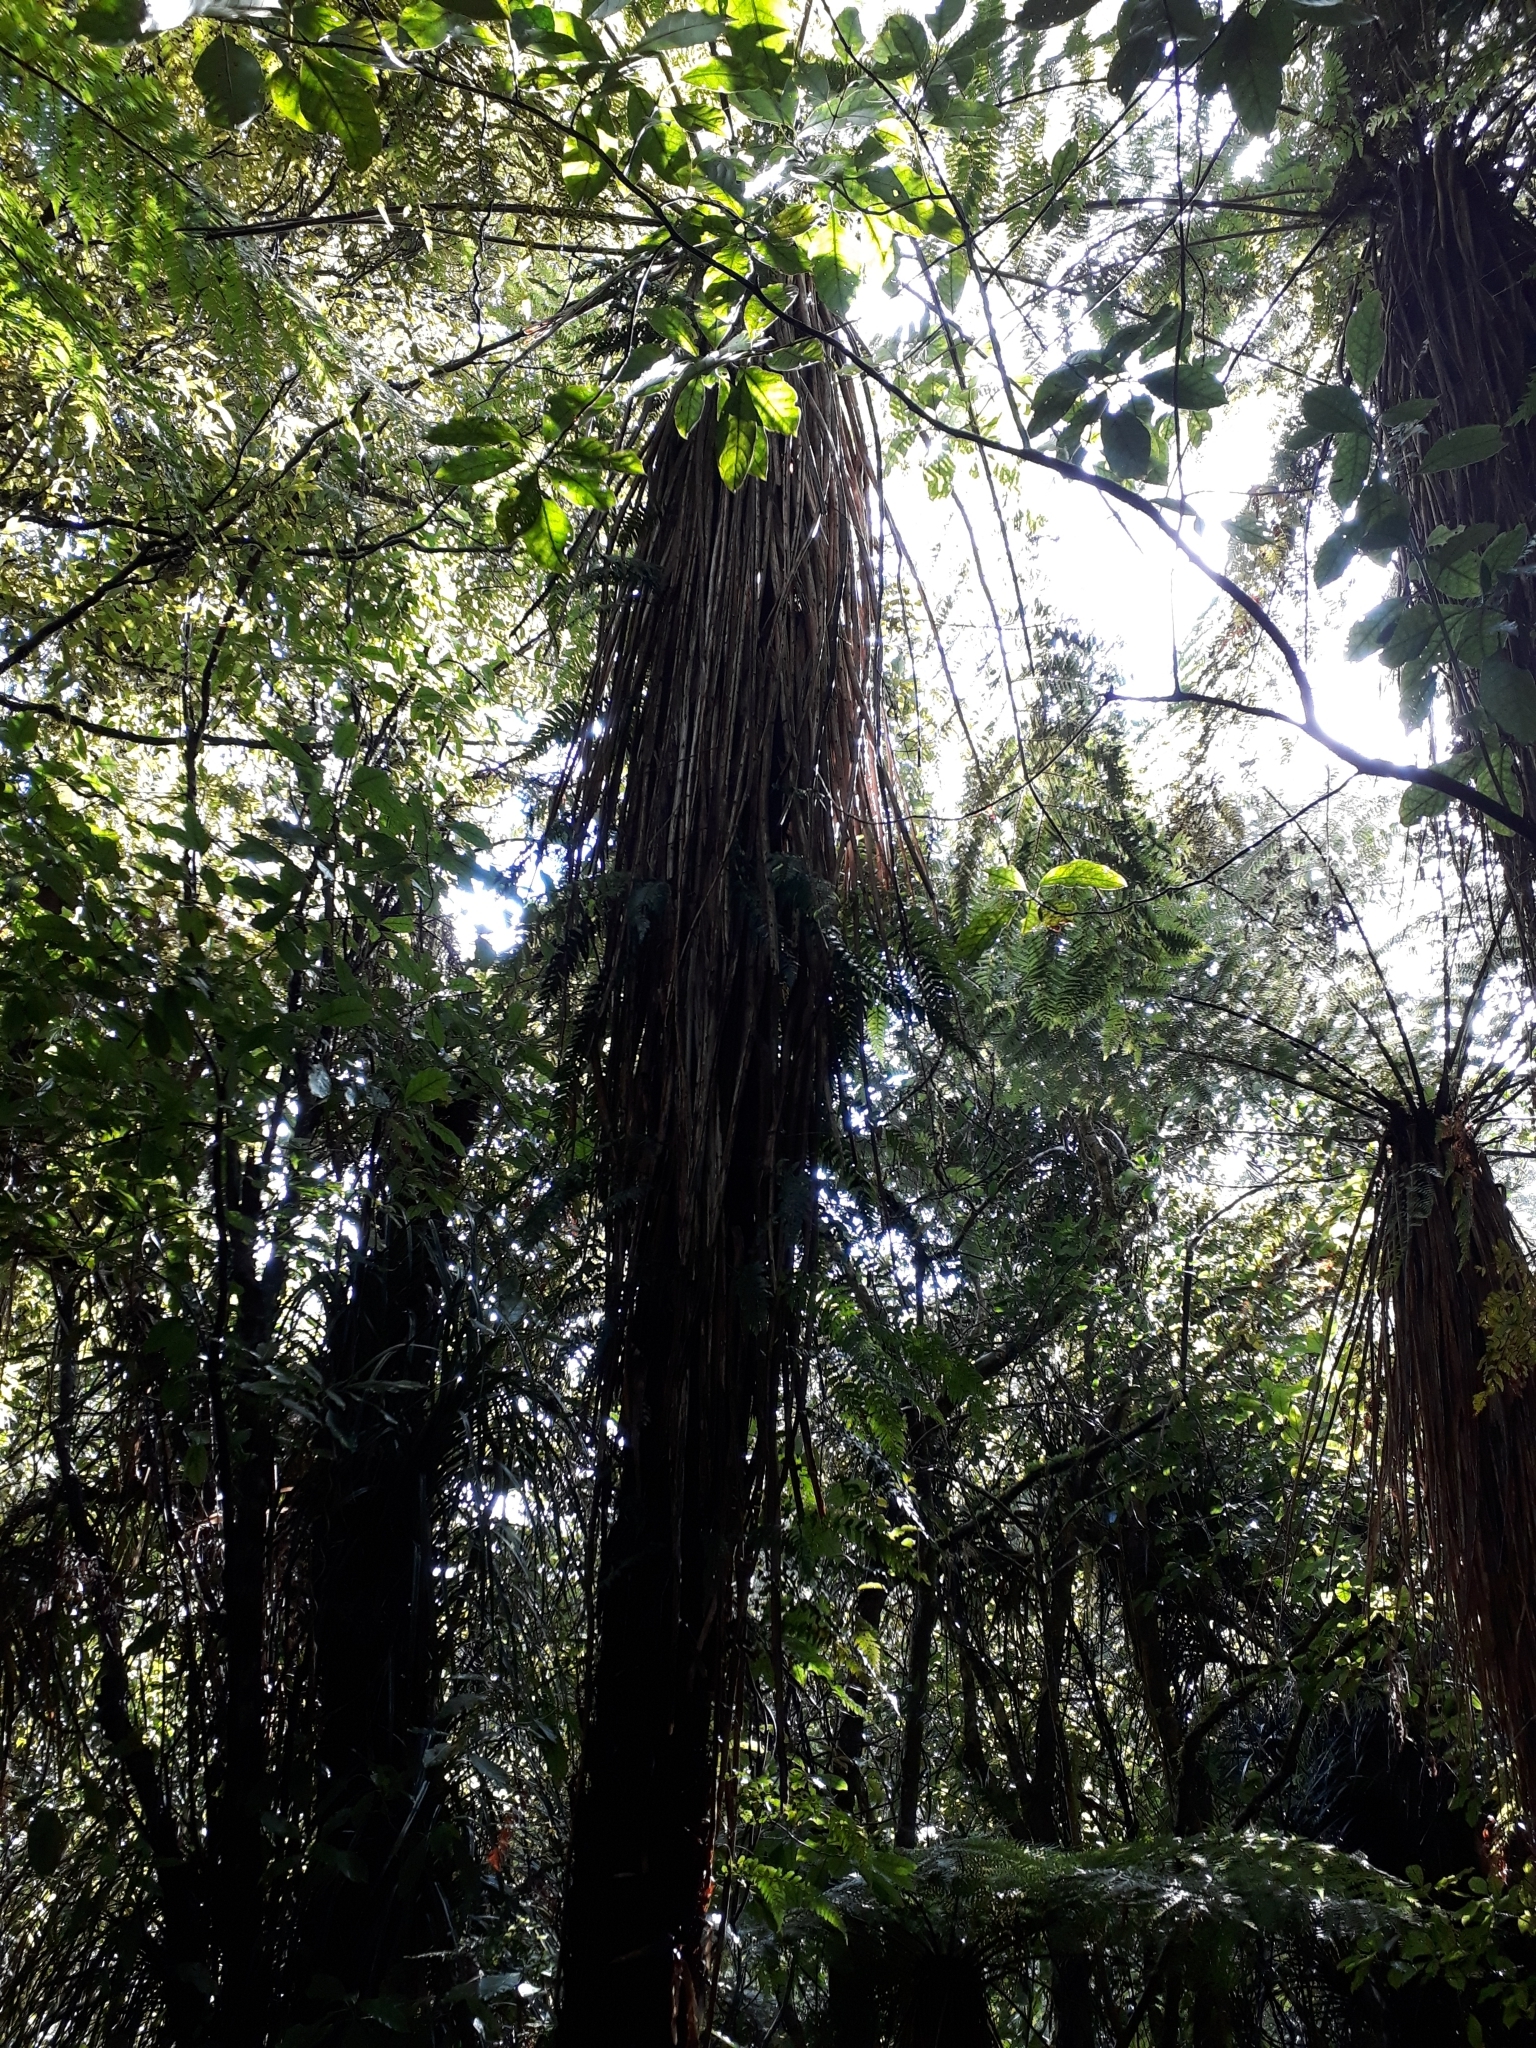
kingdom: Plantae
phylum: Tracheophyta
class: Polypodiopsida
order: Cyatheales
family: Cyatheaceae
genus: Alsophila
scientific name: Alsophila smithii
